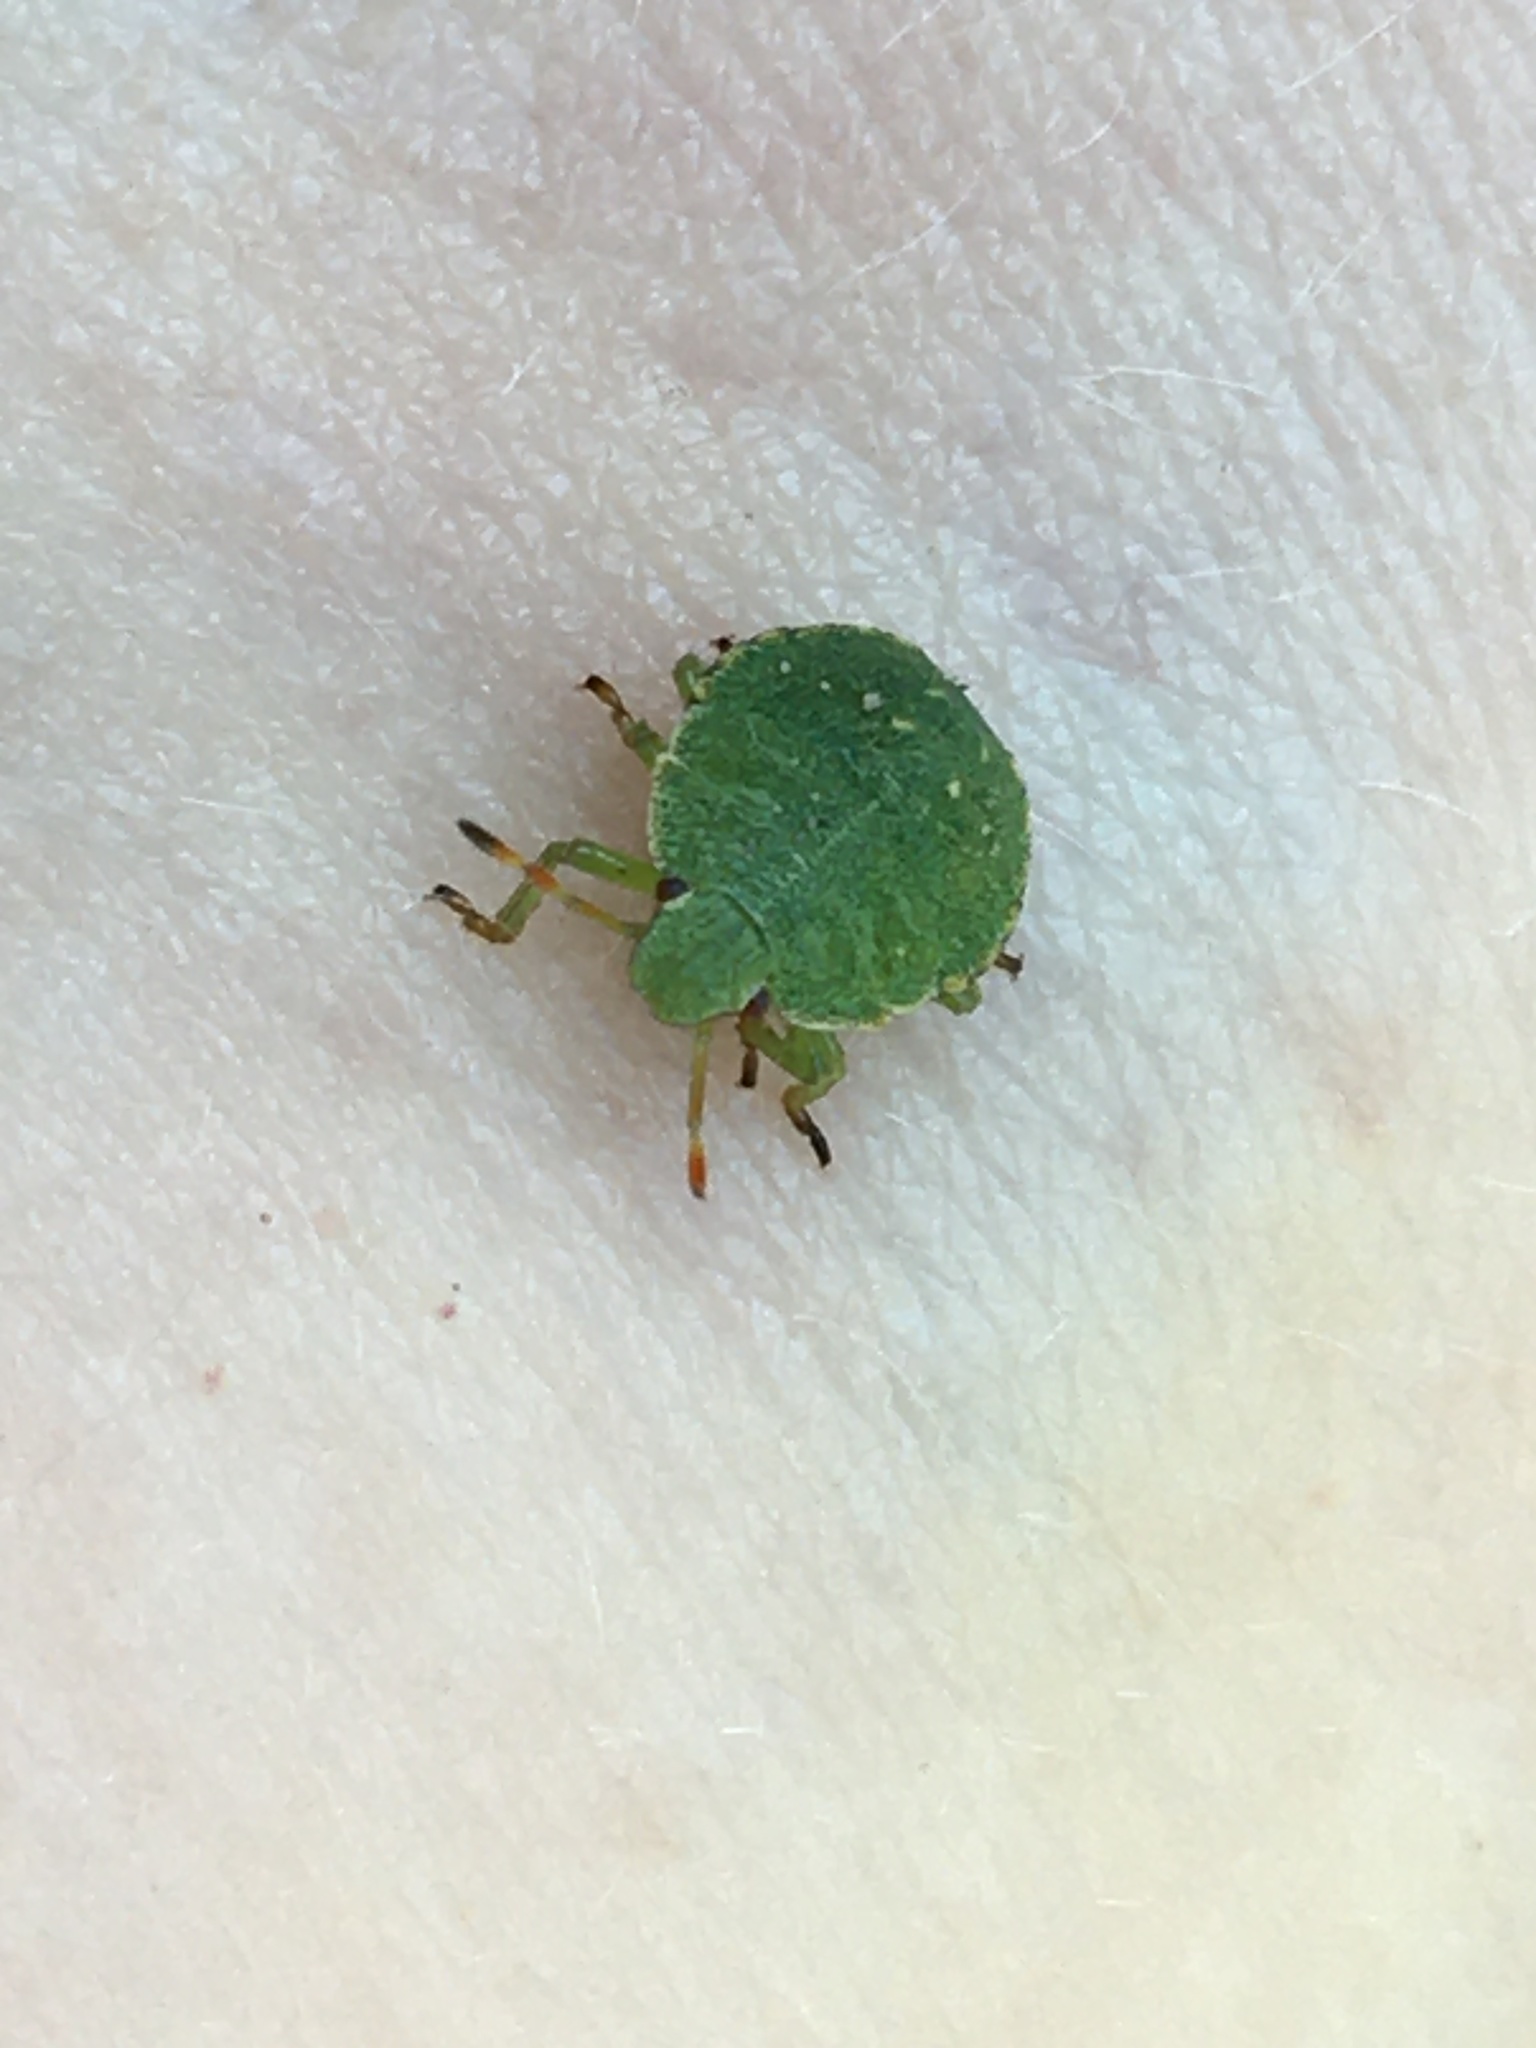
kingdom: Animalia
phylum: Arthropoda
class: Insecta
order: Hemiptera
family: Pentatomidae
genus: Palomena
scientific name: Palomena prasina
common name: Green shieldbug
